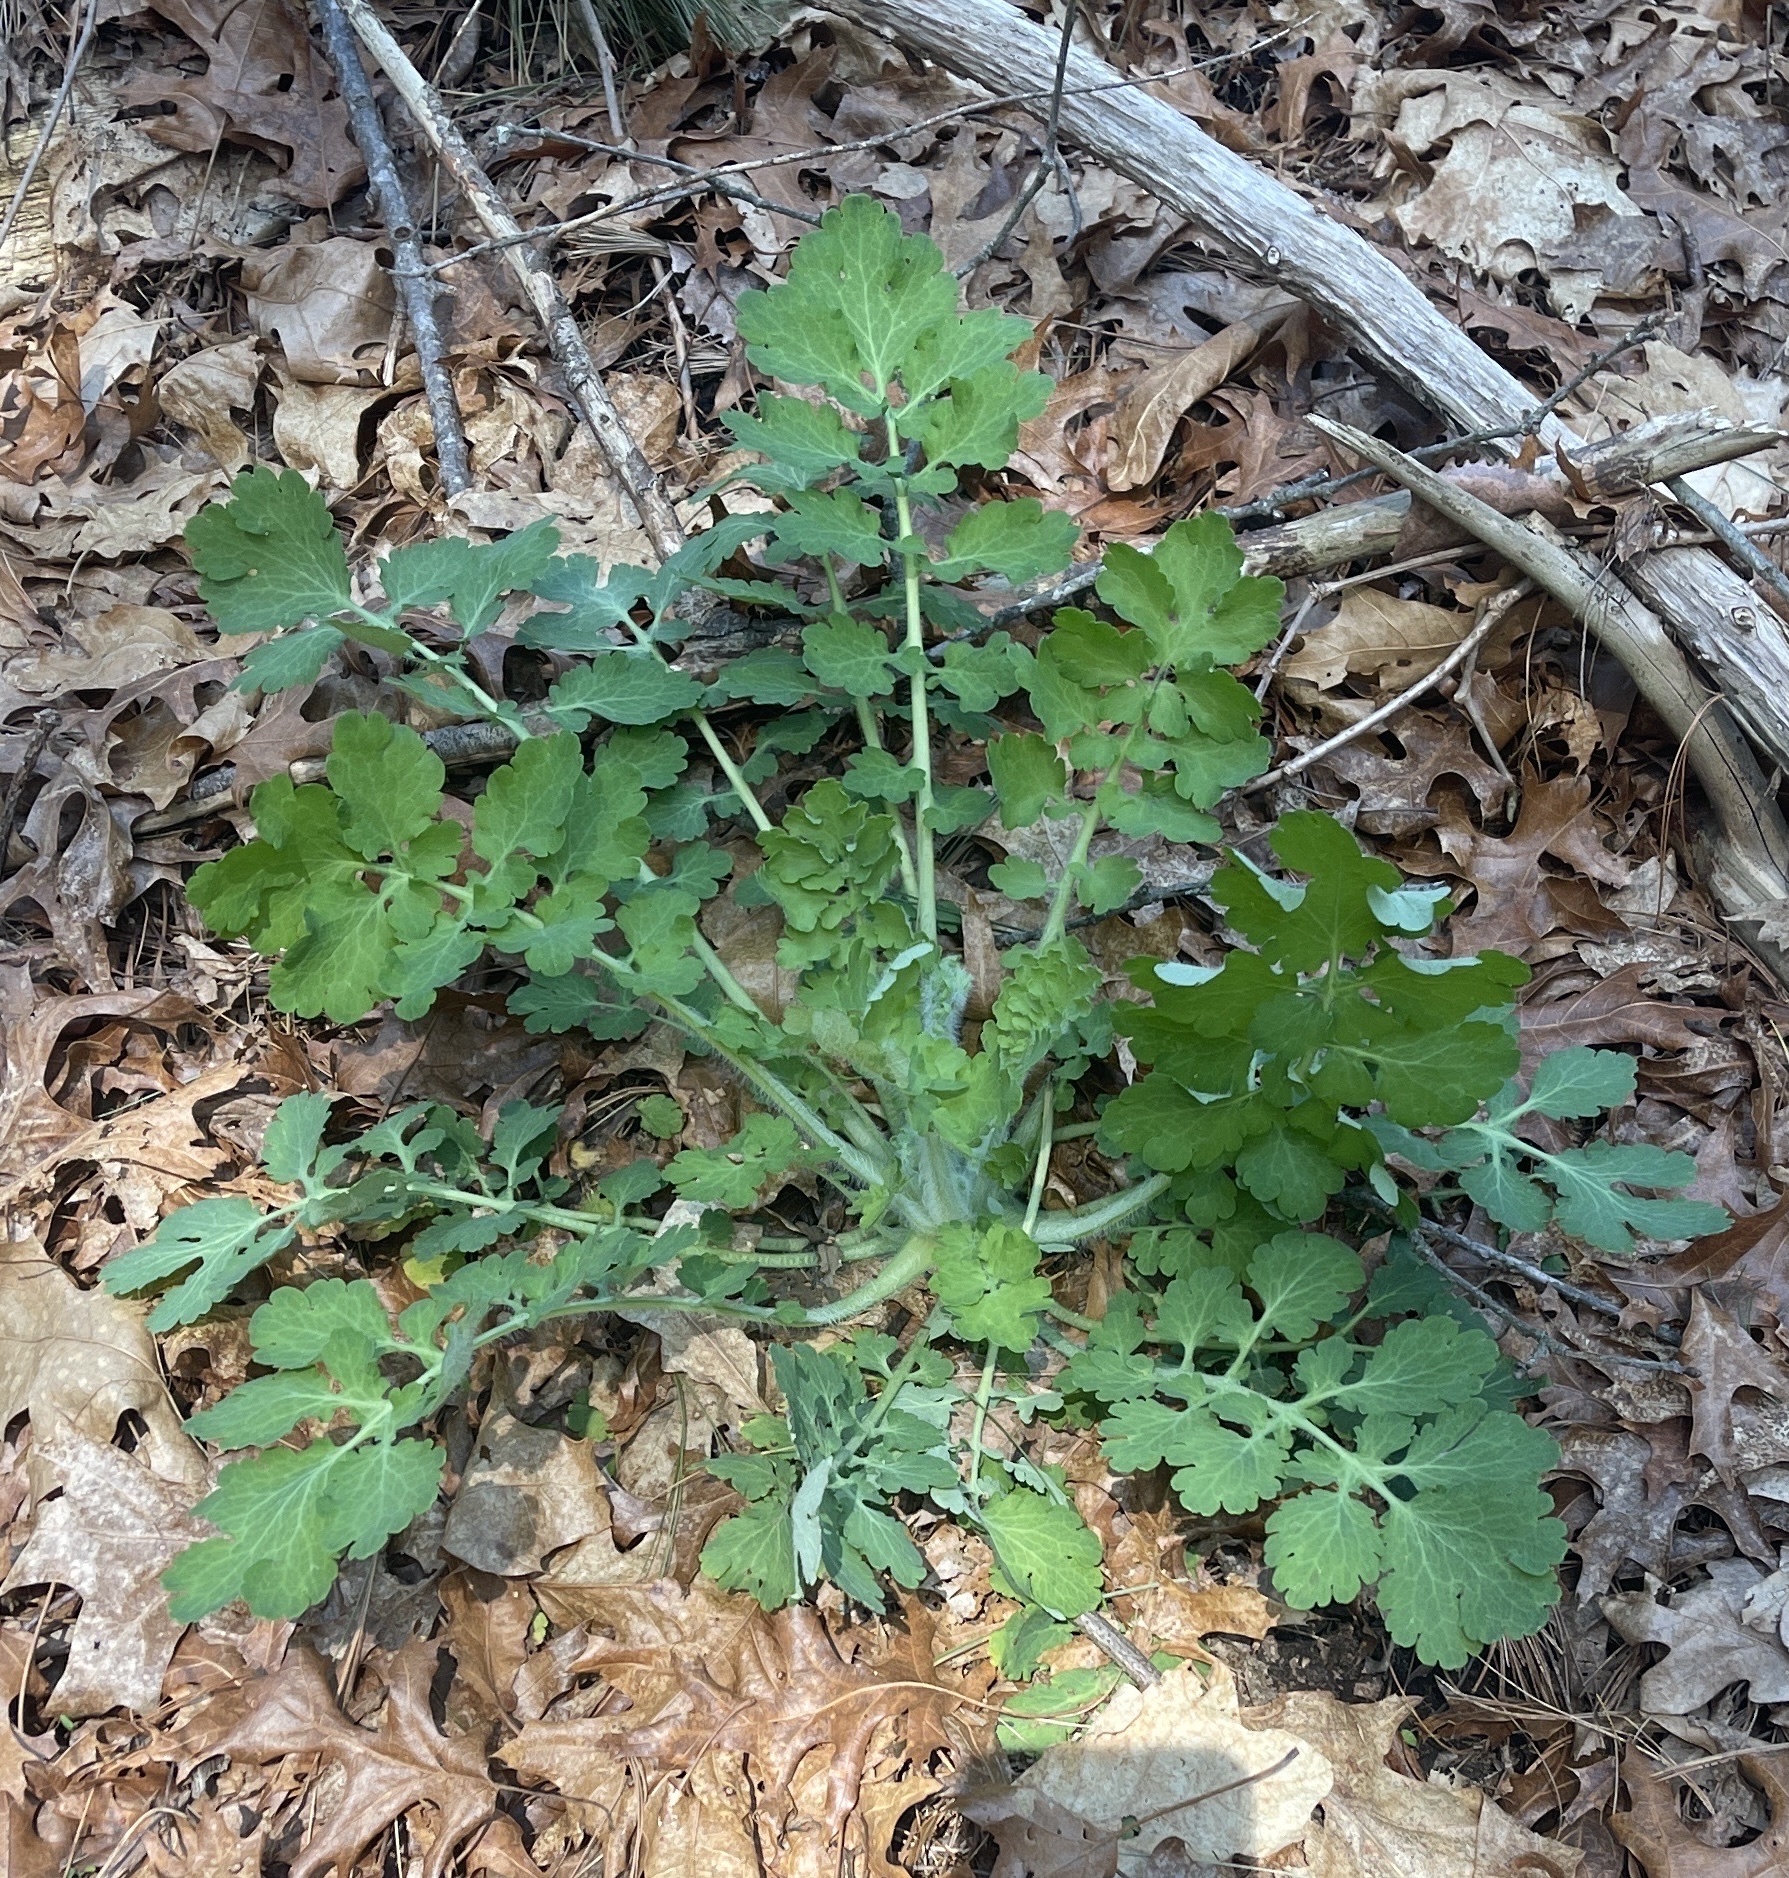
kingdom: Plantae
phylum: Tracheophyta
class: Magnoliopsida
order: Ranunculales
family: Papaveraceae
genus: Chelidonium
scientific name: Chelidonium majus
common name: Greater celandine
